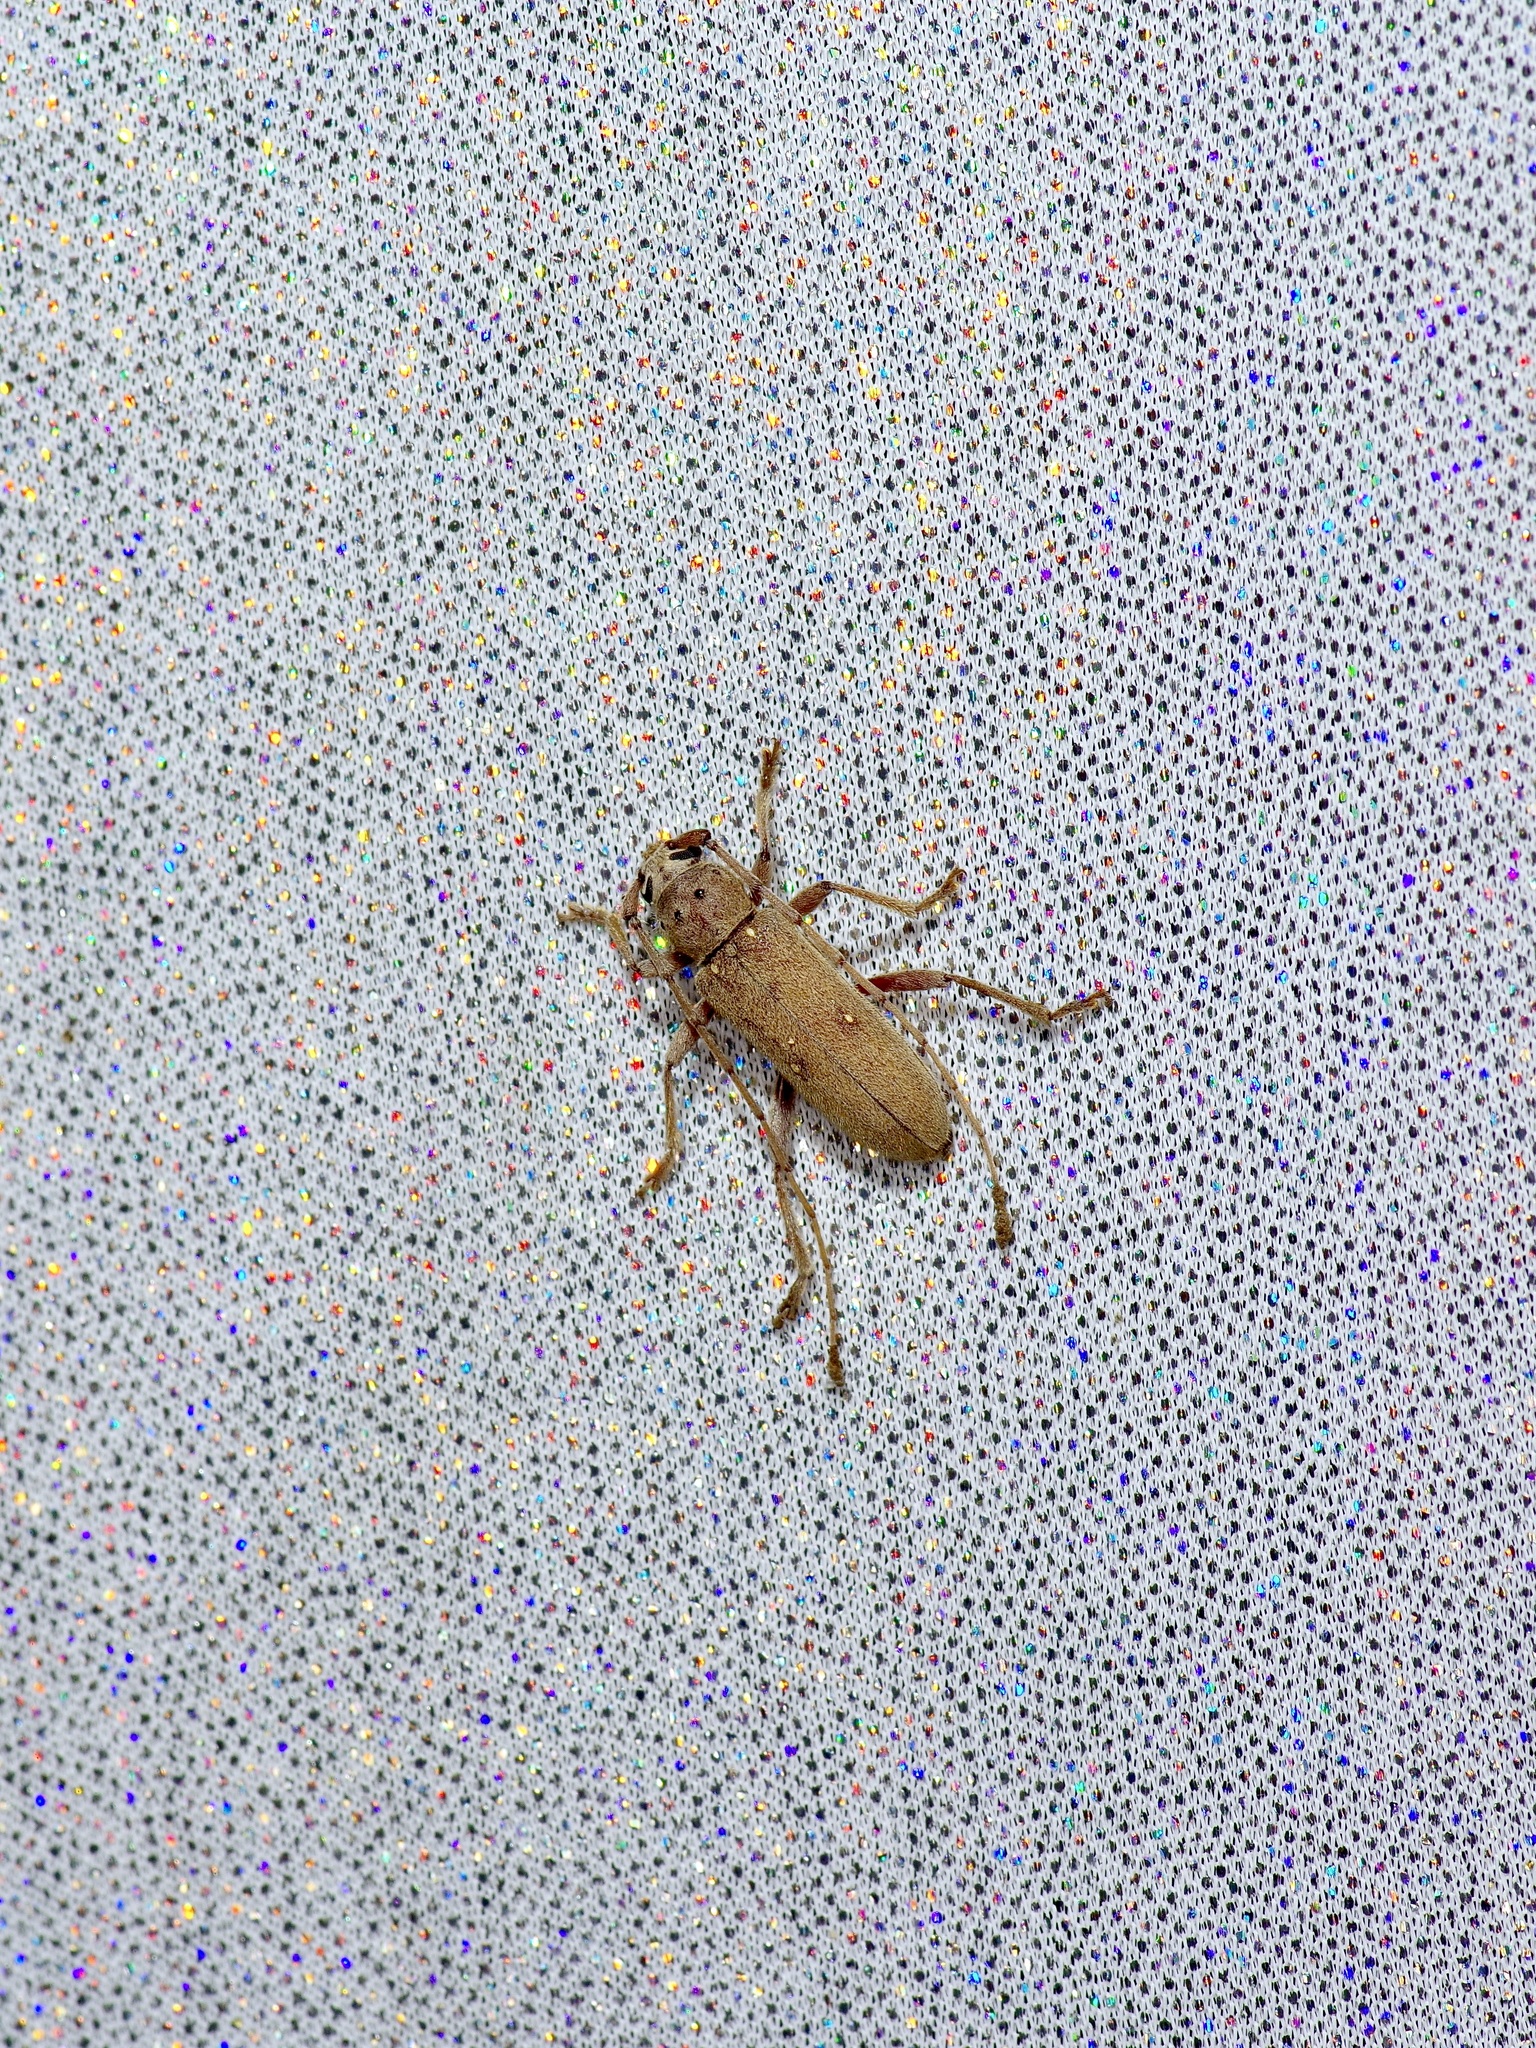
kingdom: Animalia
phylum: Arthropoda
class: Insecta
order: Coleoptera
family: Cerambycidae
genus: Eburia
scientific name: Eburia mutica
